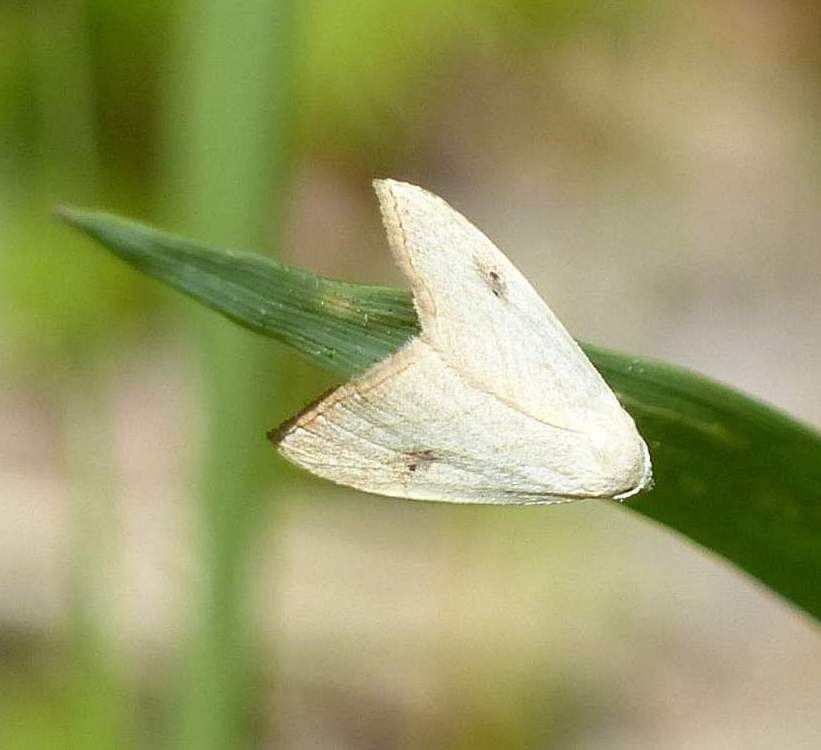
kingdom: Animalia
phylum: Arthropoda
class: Insecta
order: Lepidoptera
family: Erebidae
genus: Rivula
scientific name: Rivula propinqualis
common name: Spotted grass moth
